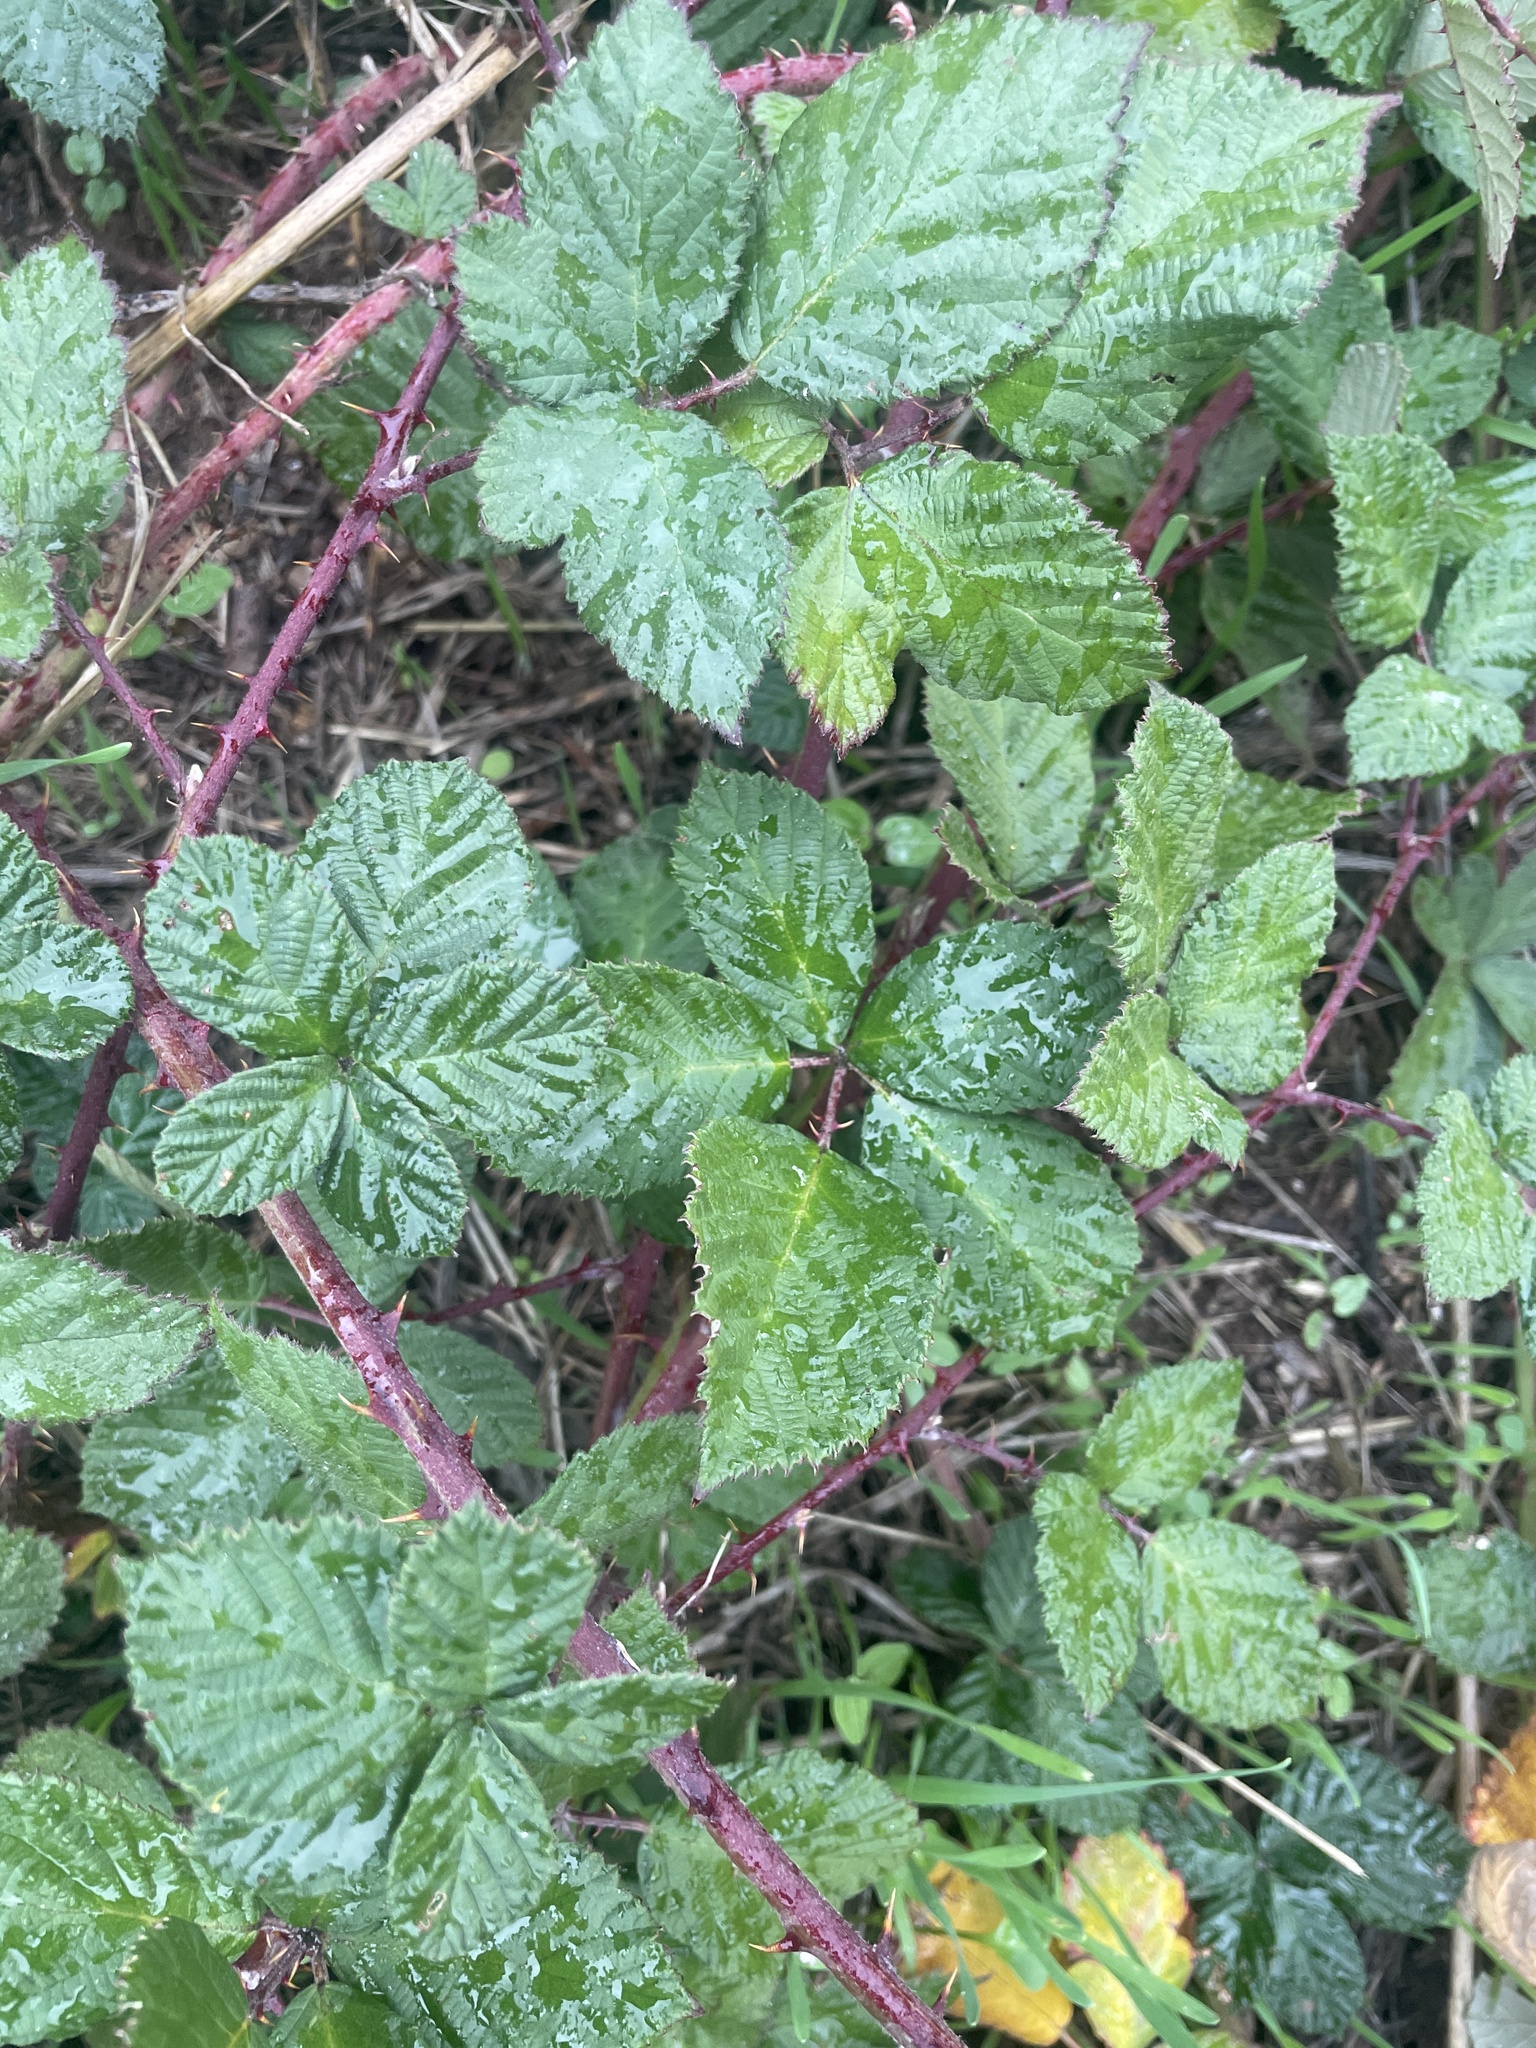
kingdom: Plantae
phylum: Tracheophyta
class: Magnoliopsida
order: Rosales
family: Rosaceae
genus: Rubus
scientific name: Rubus armeniacus
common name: Himalayan blackberry
